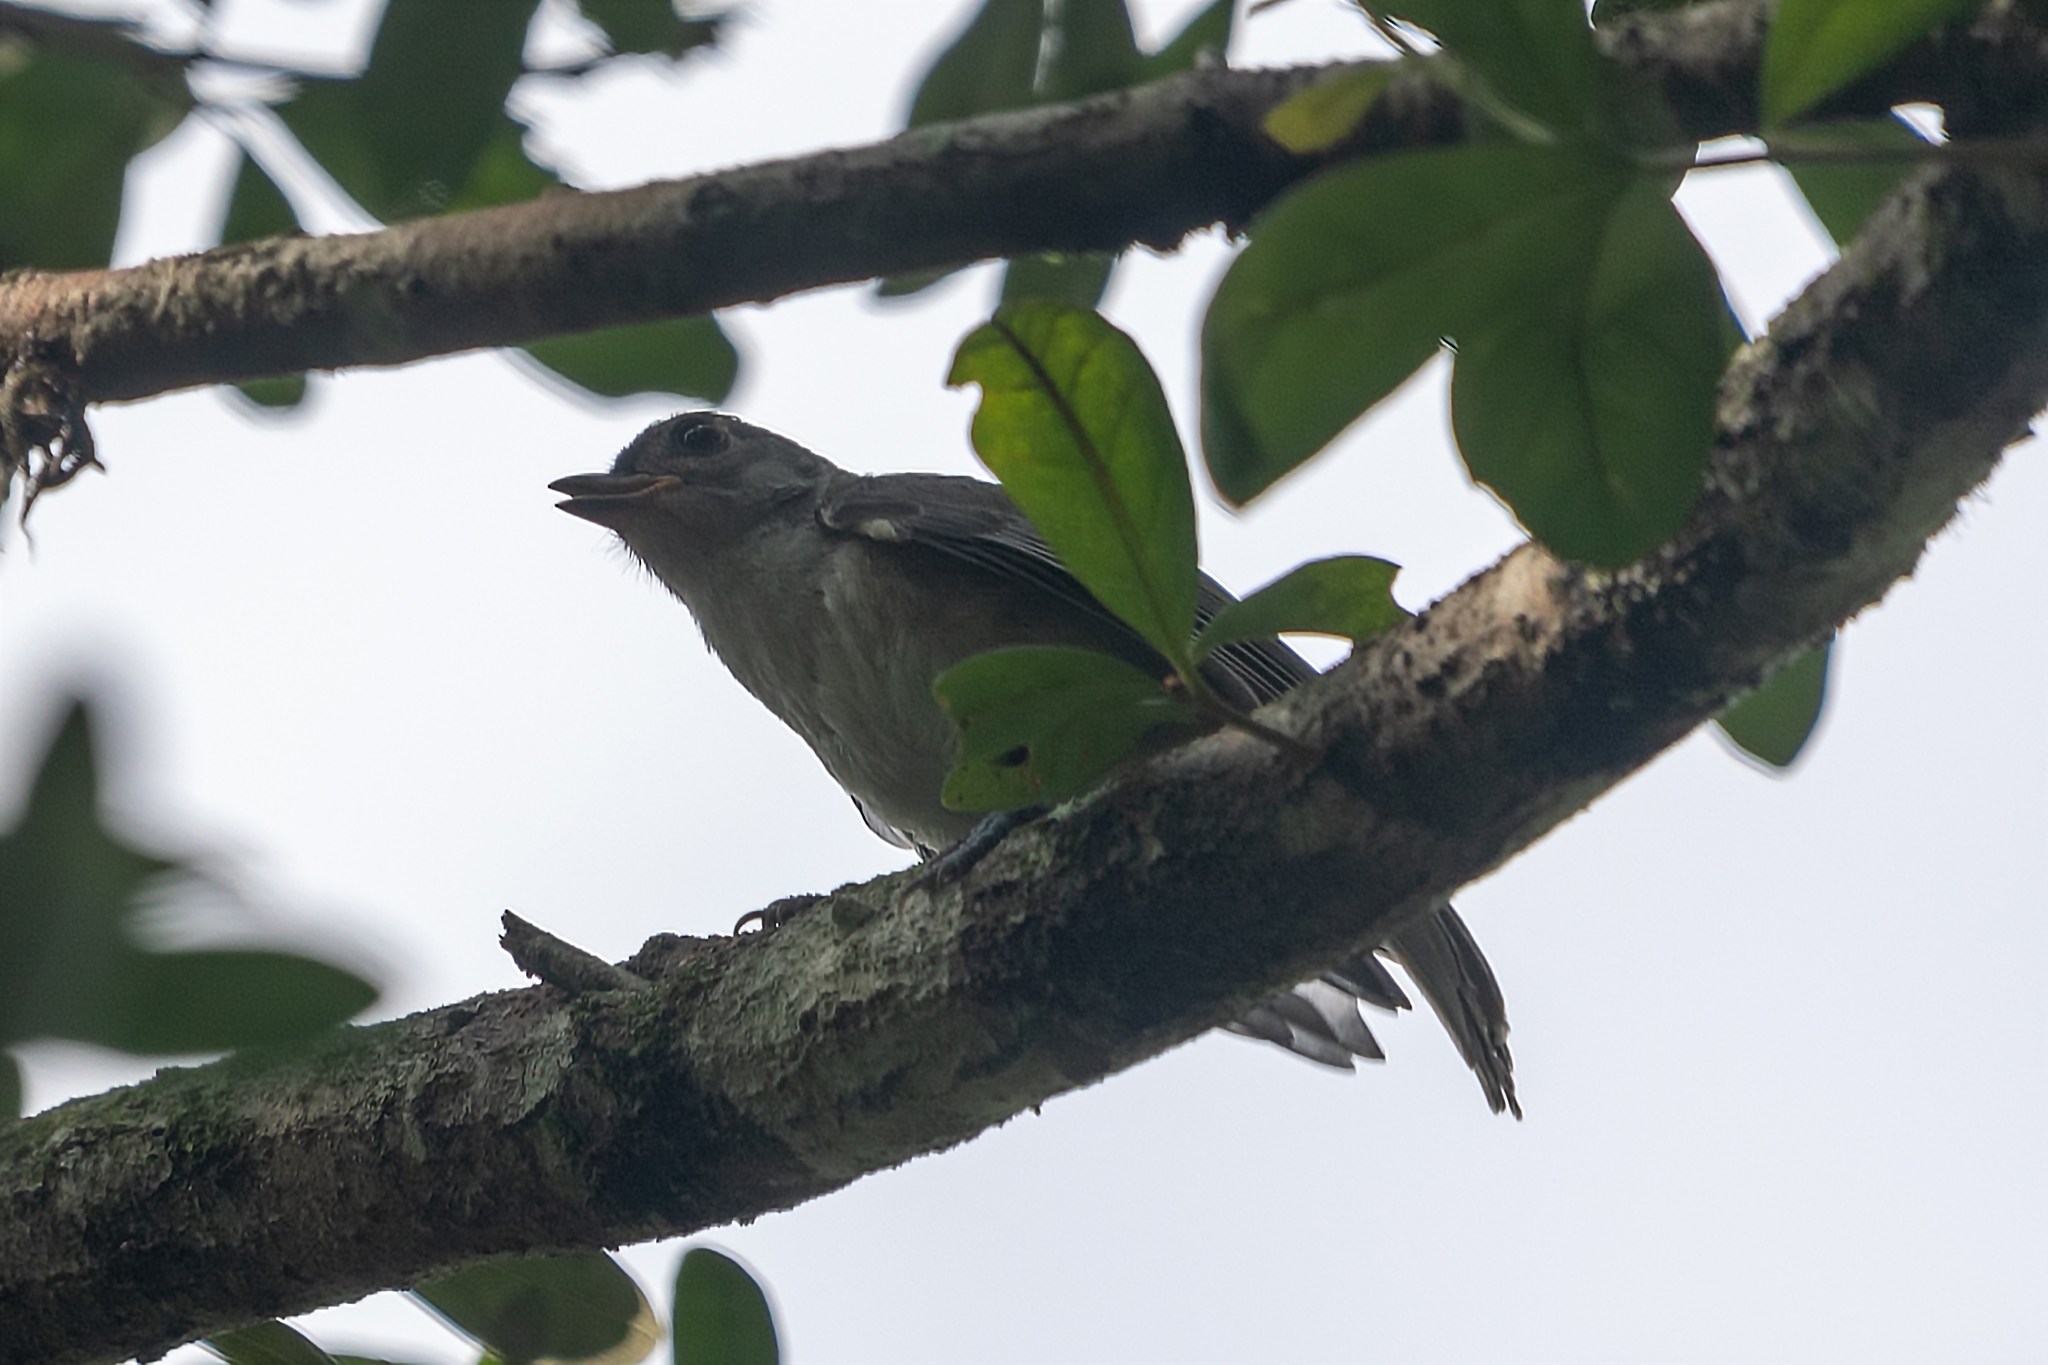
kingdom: Animalia
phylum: Chordata
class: Aves
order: Passeriformes
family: Paridae
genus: Baeolophus
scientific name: Baeolophus bicolor
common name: Tufted titmouse
